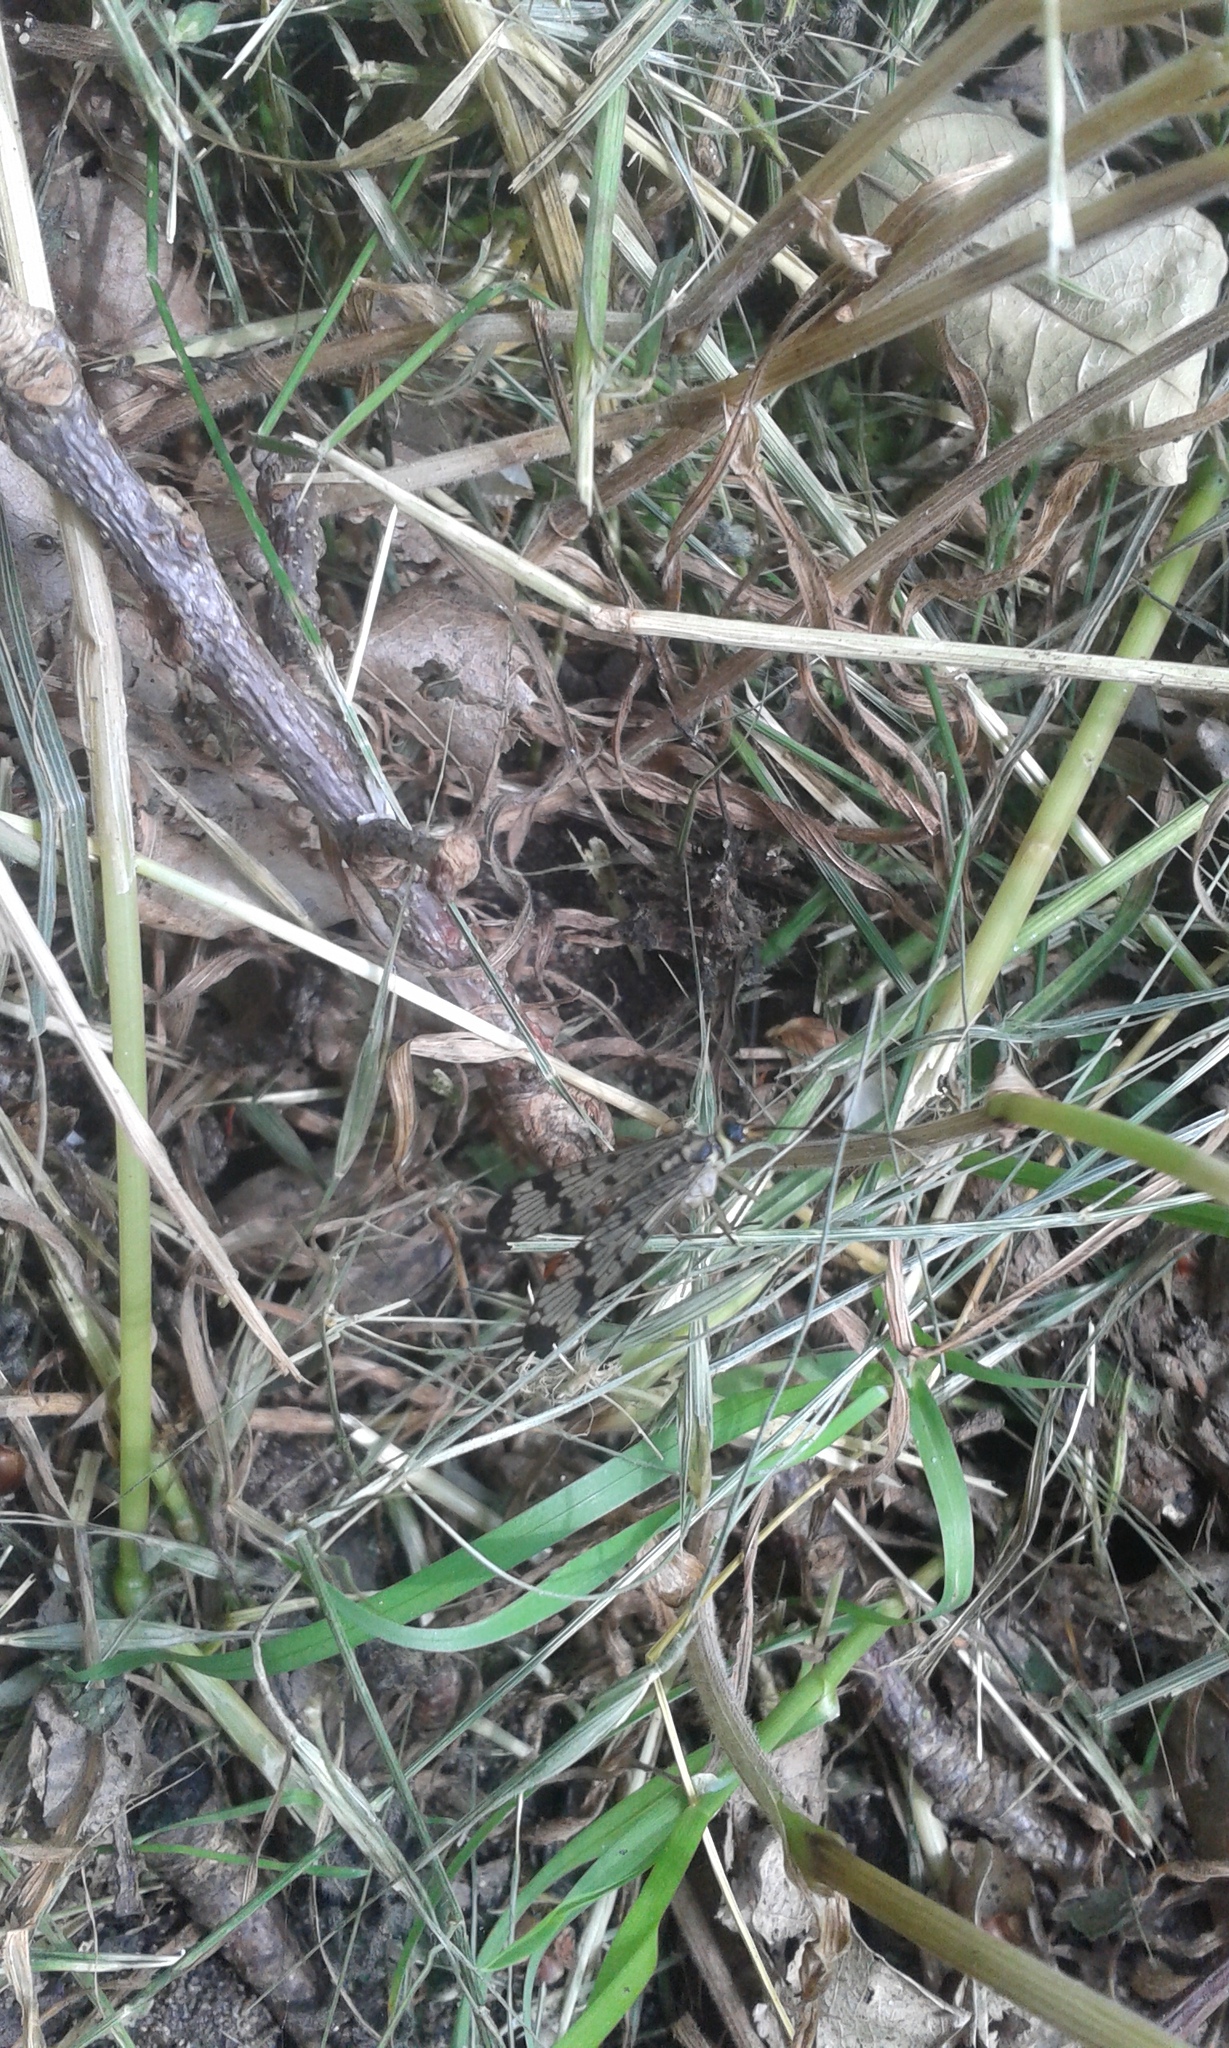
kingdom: Animalia
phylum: Arthropoda
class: Insecta
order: Mecoptera
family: Panorpidae
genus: Panorpa
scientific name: Panorpa communis
